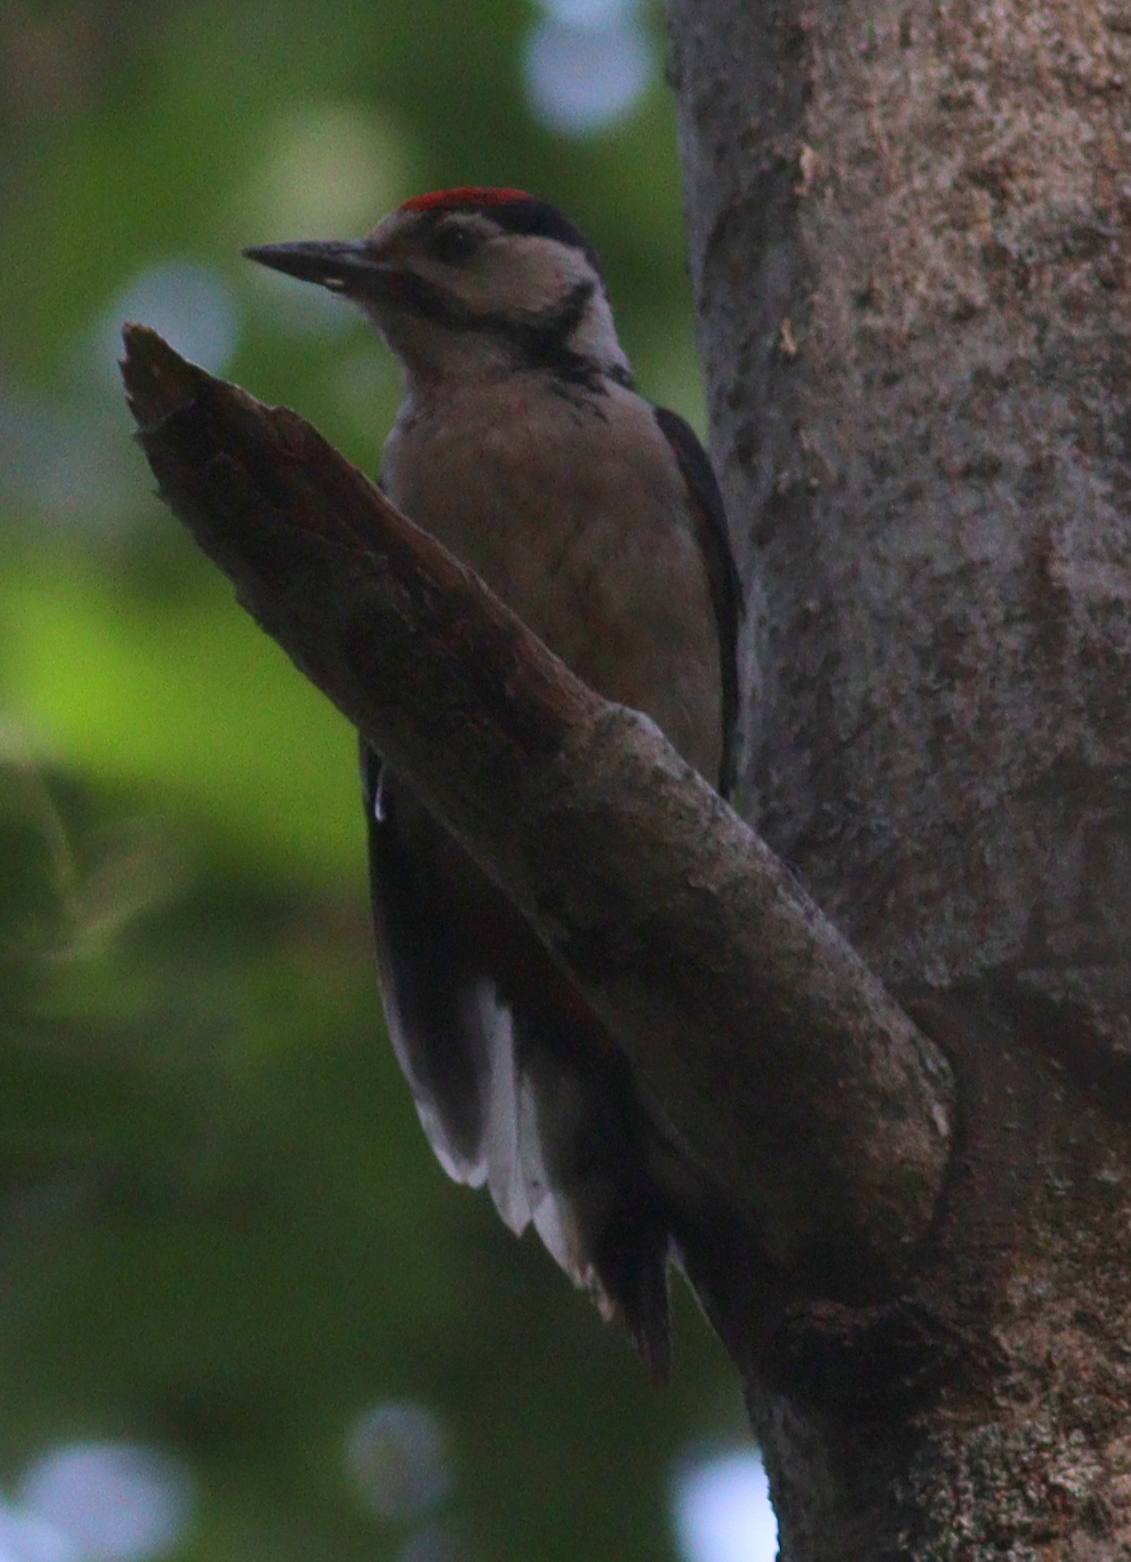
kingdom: Animalia
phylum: Chordata
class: Aves
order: Piciformes
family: Picidae
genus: Dendrocopos
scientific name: Dendrocopos major
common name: Great spotted woodpecker
